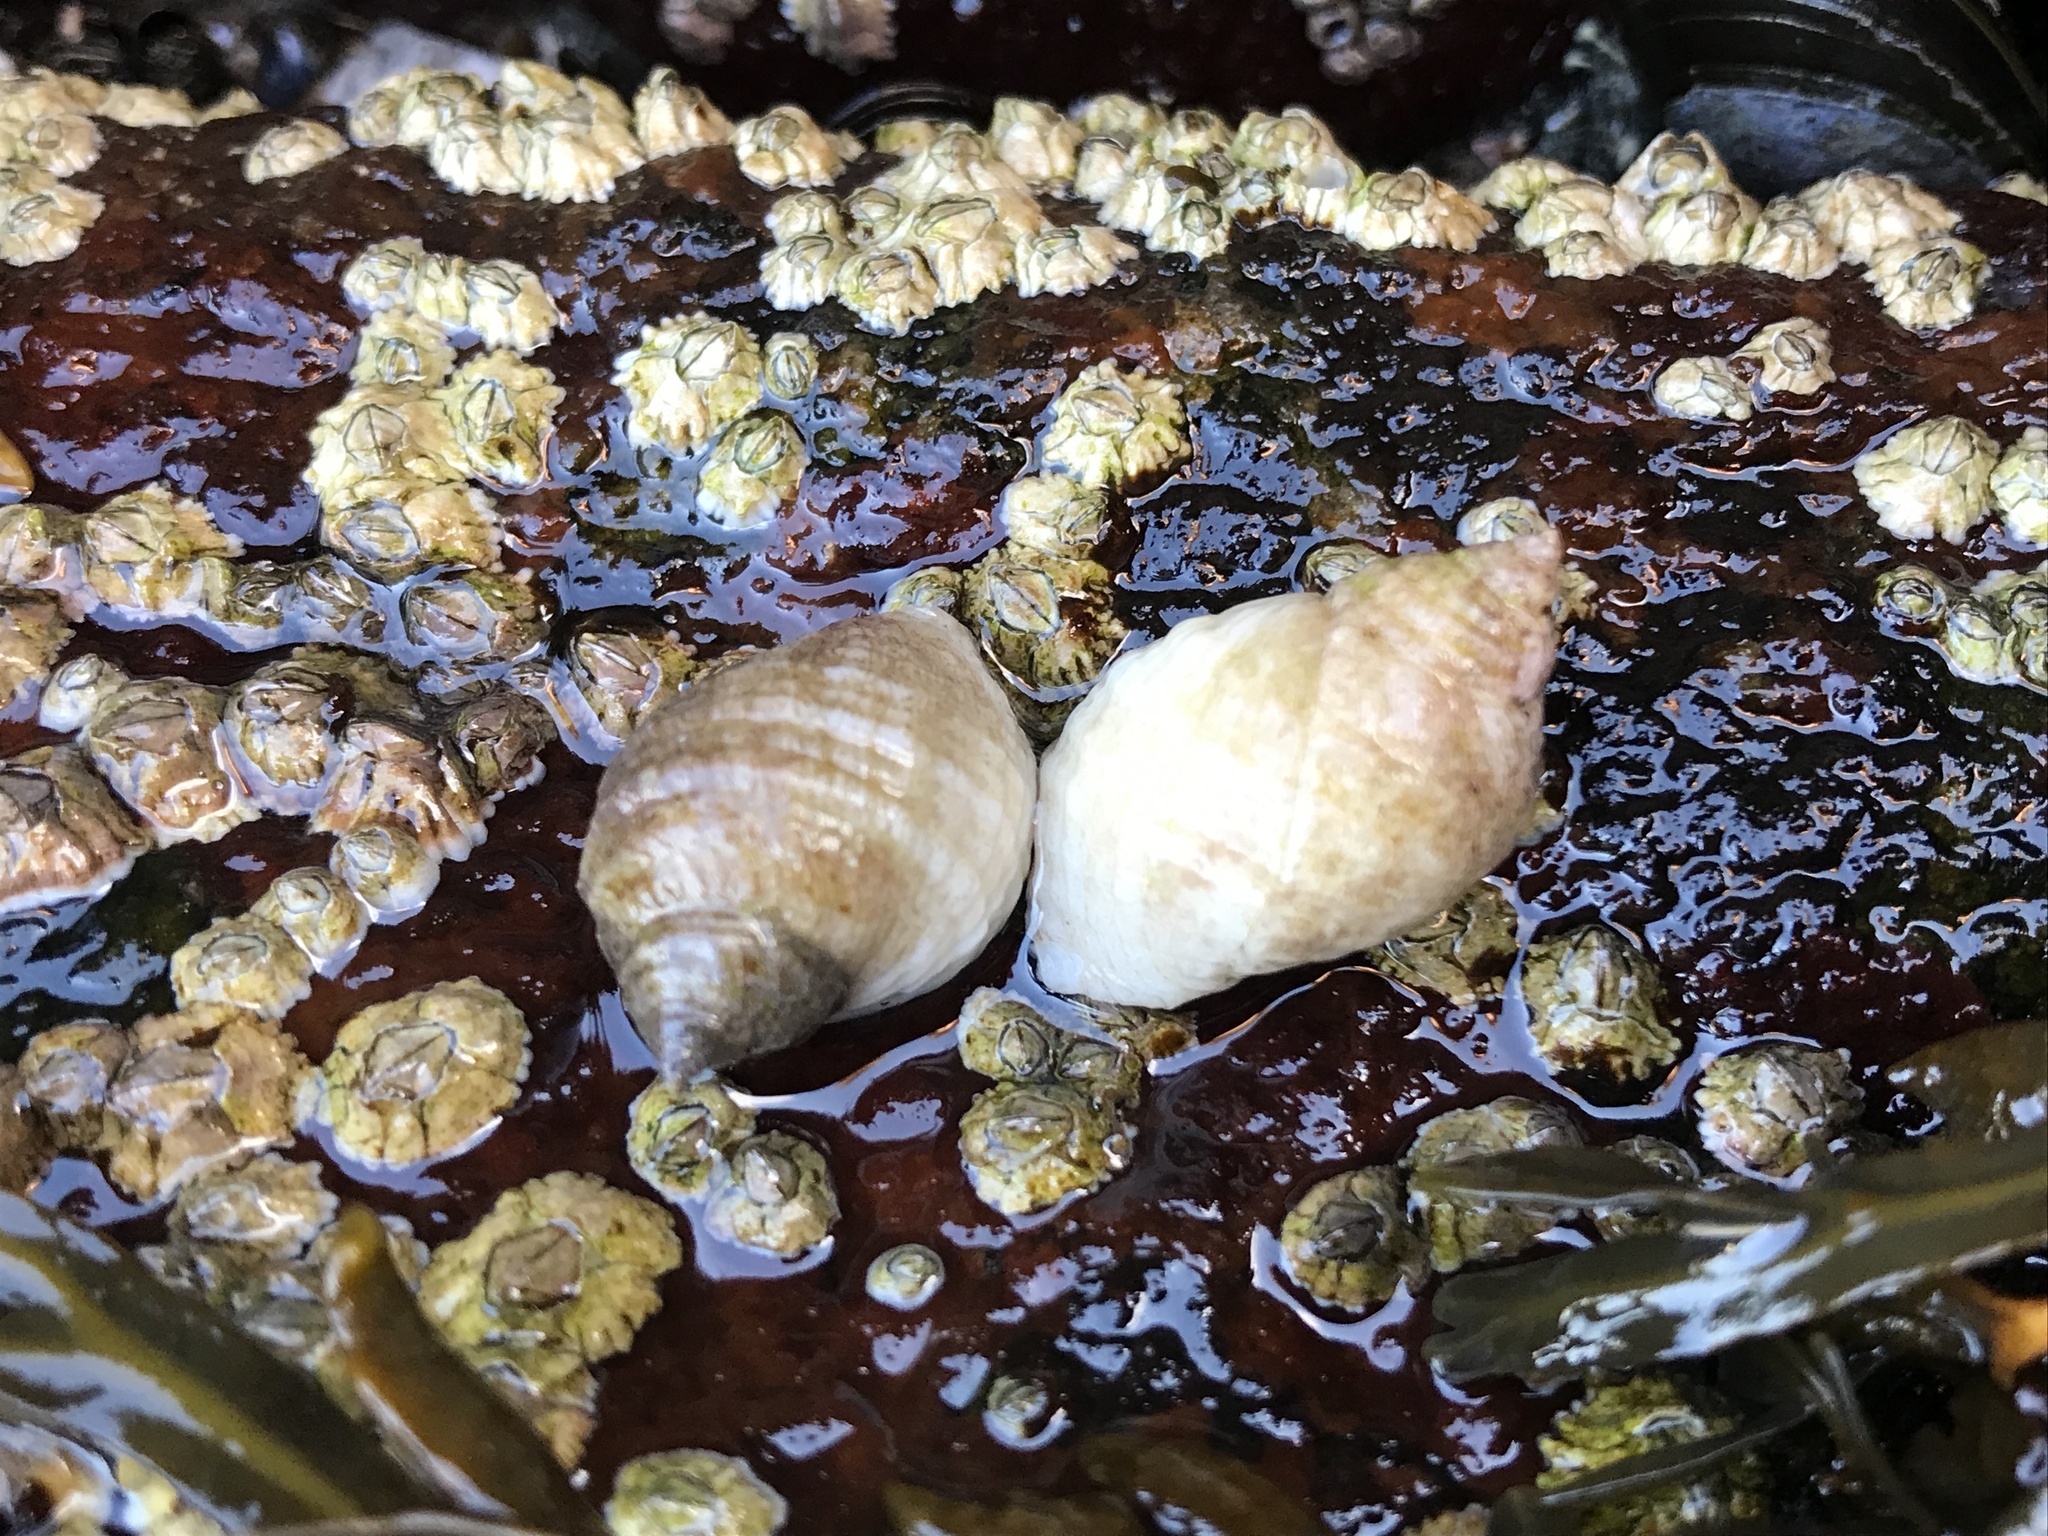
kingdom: Animalia
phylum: Mollusca
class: Gastropoda
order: Neogastropoda
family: Muricidae
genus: Nucella
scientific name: Nucella lapillus
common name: Dog whelk
